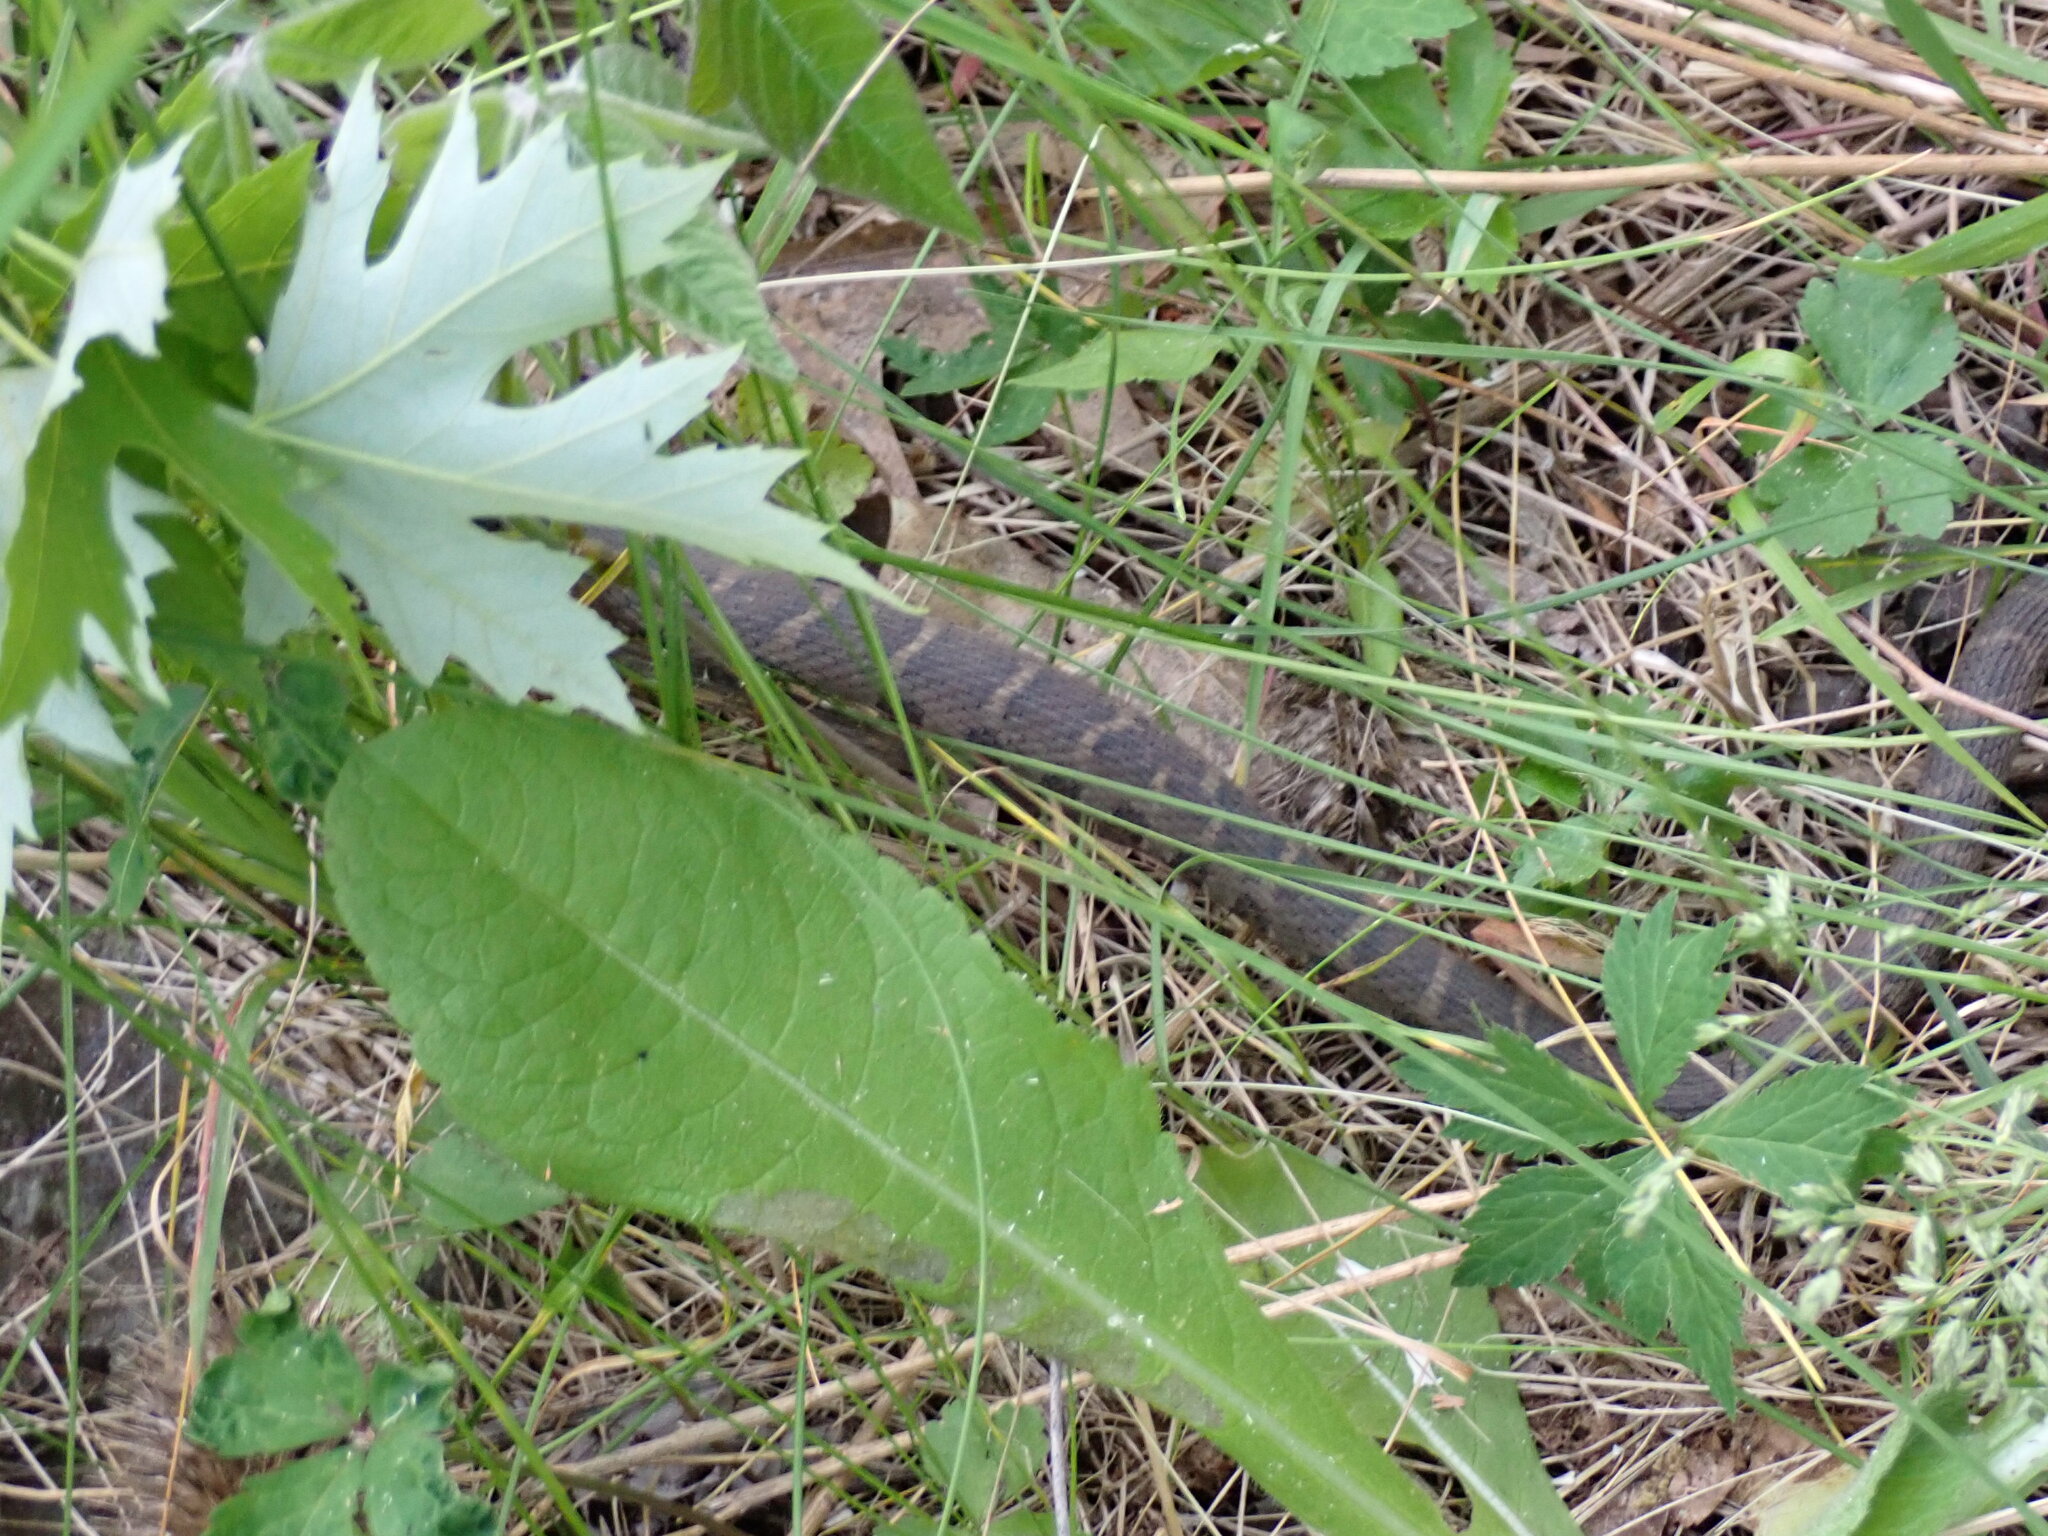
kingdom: Animalia
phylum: Chordata
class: Squamata
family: Colubridae
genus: Nerodia
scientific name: Nerodia sipedon
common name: Northern water snake
